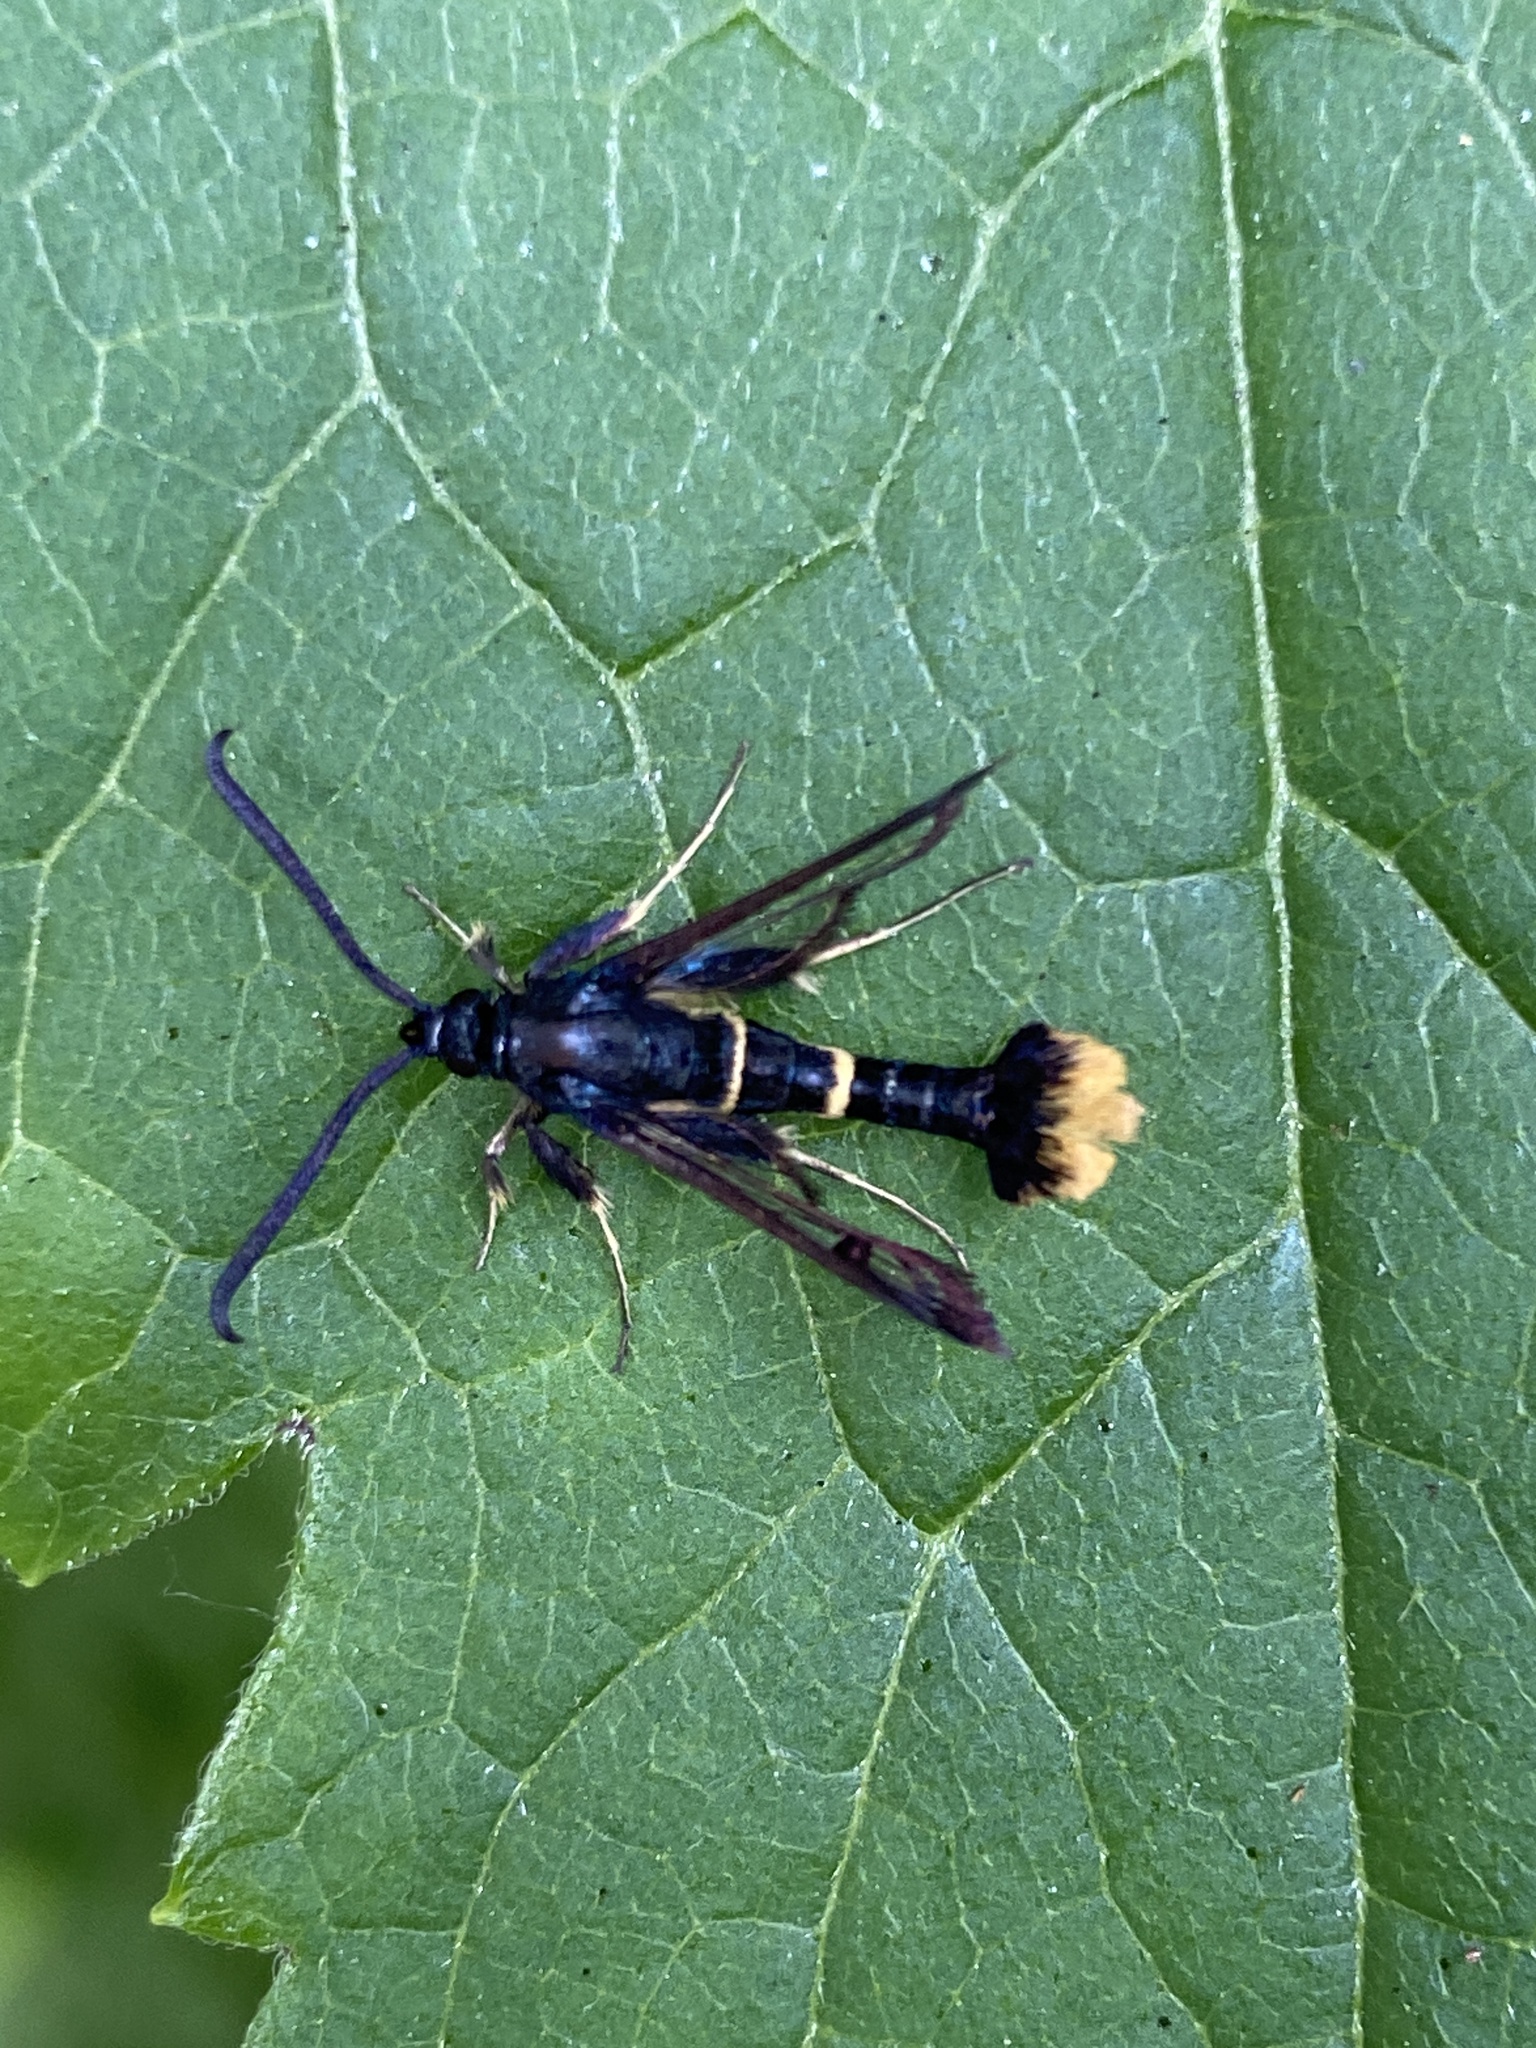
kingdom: Animalia
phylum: Arthropoda
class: Insecta
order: Lepidoptera
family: Sesiidae
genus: Synanthedon
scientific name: Synanthedon andrenaeformis
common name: Orange-tailed clearwing
